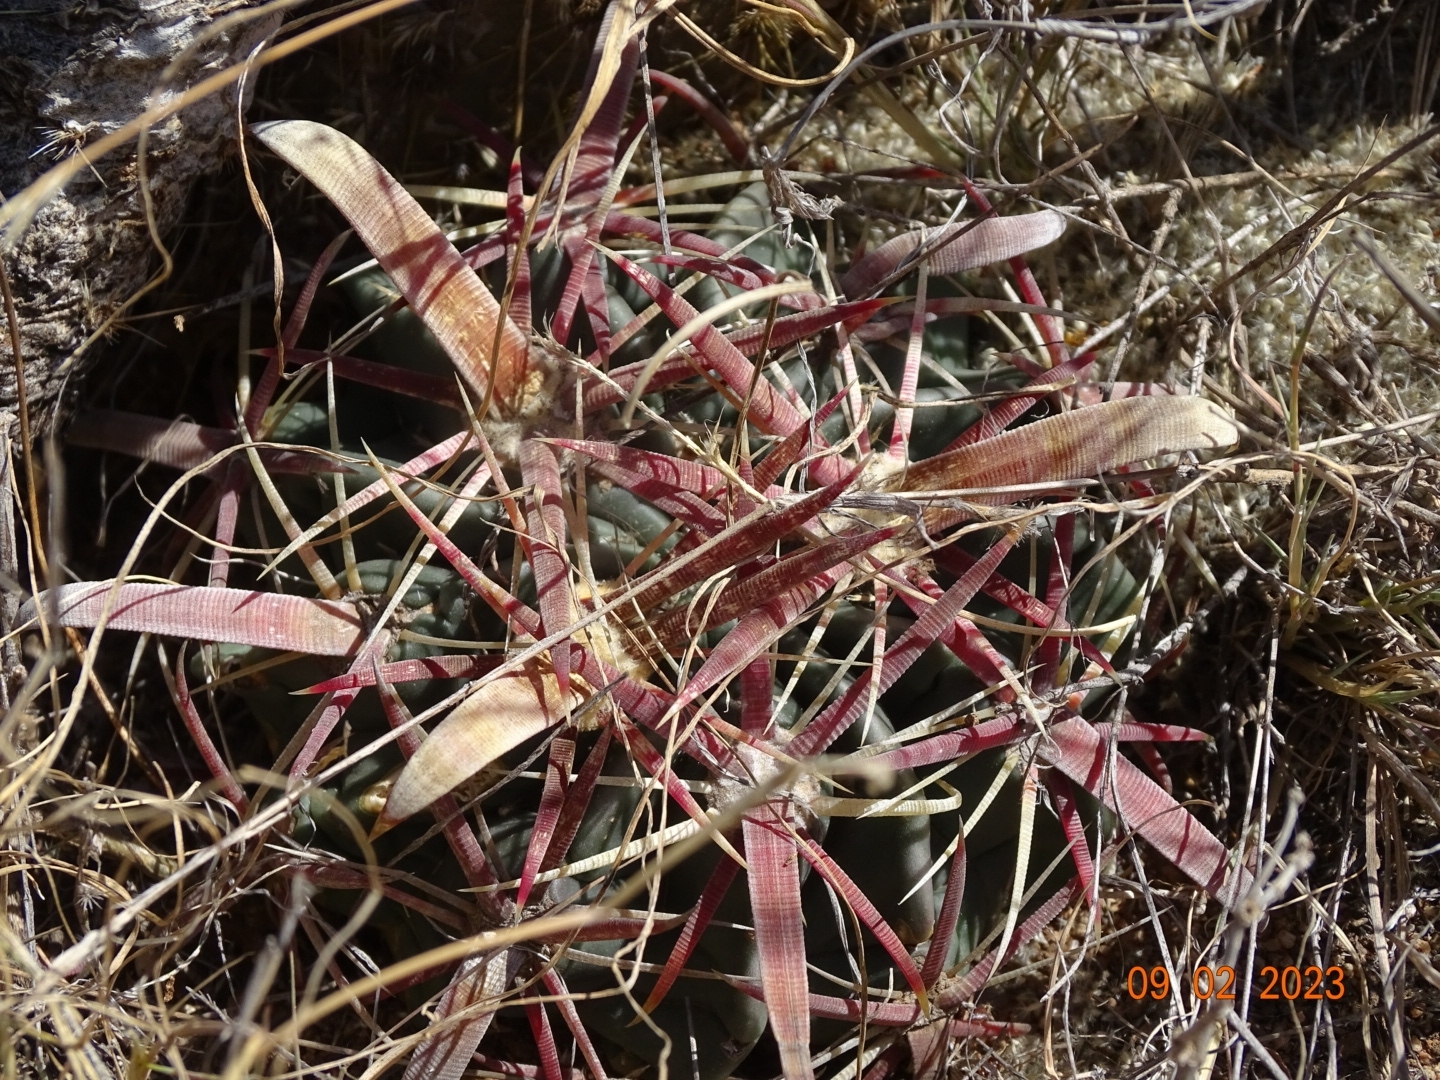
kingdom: Plantae
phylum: Tracheophyta
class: Magnoliopsida
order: Caryophyllales
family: Cactaceae
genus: Ferocactus
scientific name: Ferocactus latispinus
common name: Devil's-tongue cactus
